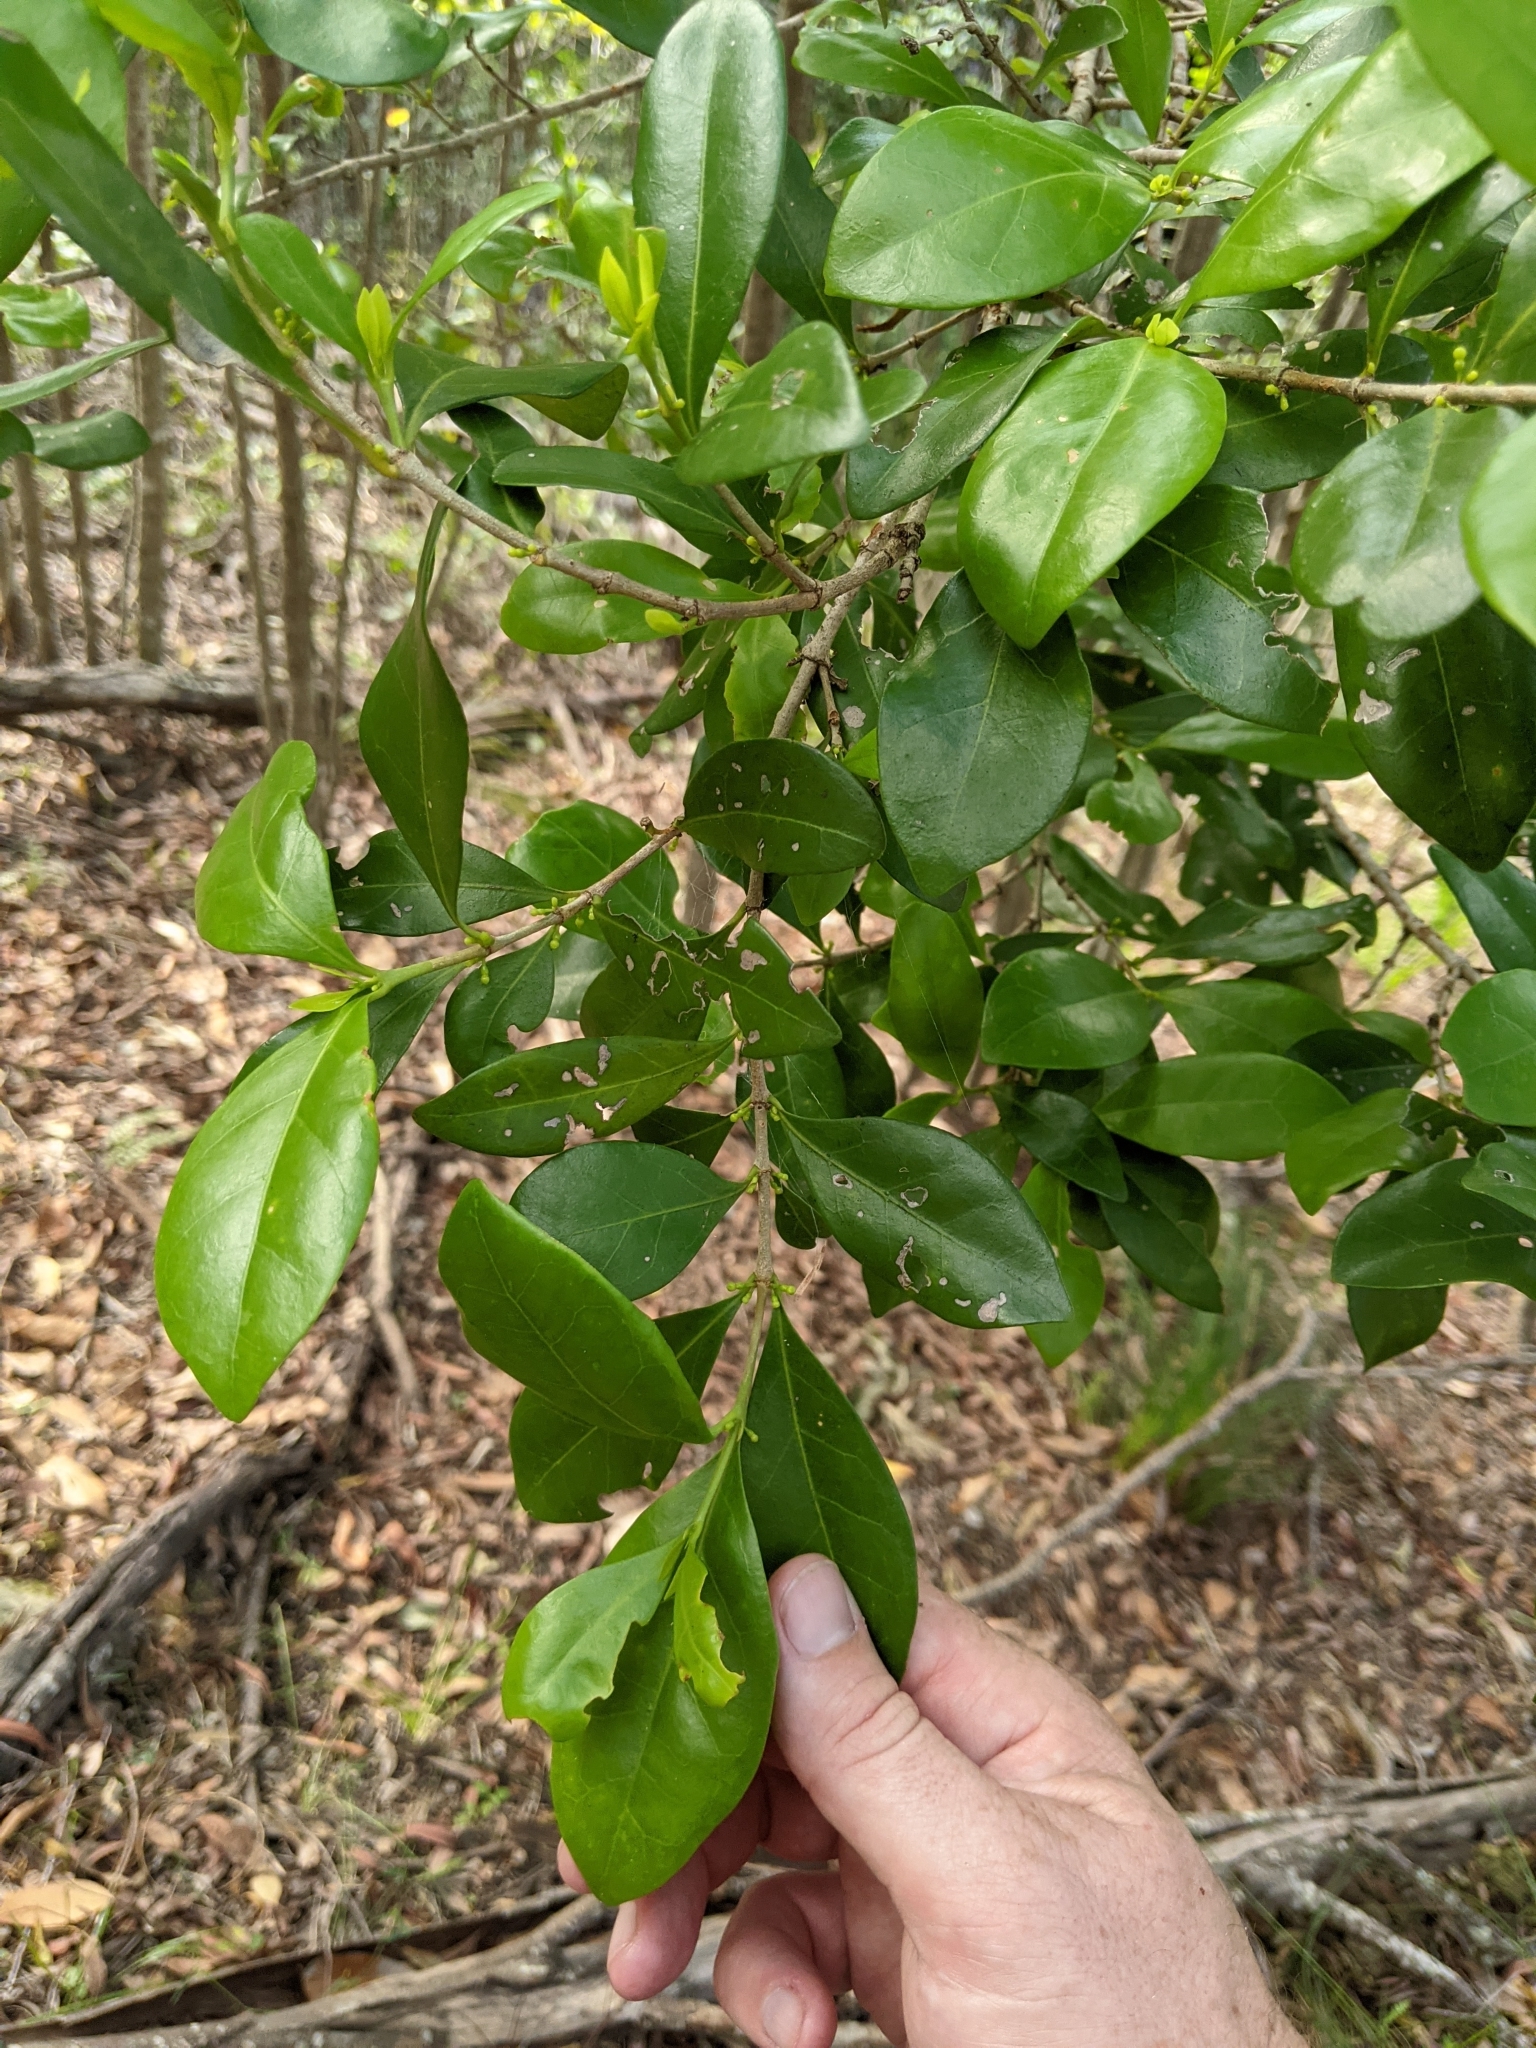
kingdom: Plantae
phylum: Tracheophyta
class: Magnoliopsida
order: Gentianales
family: Rubiaceae
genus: Cyclophyllum
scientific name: Cyclophyllum coprosmoides
